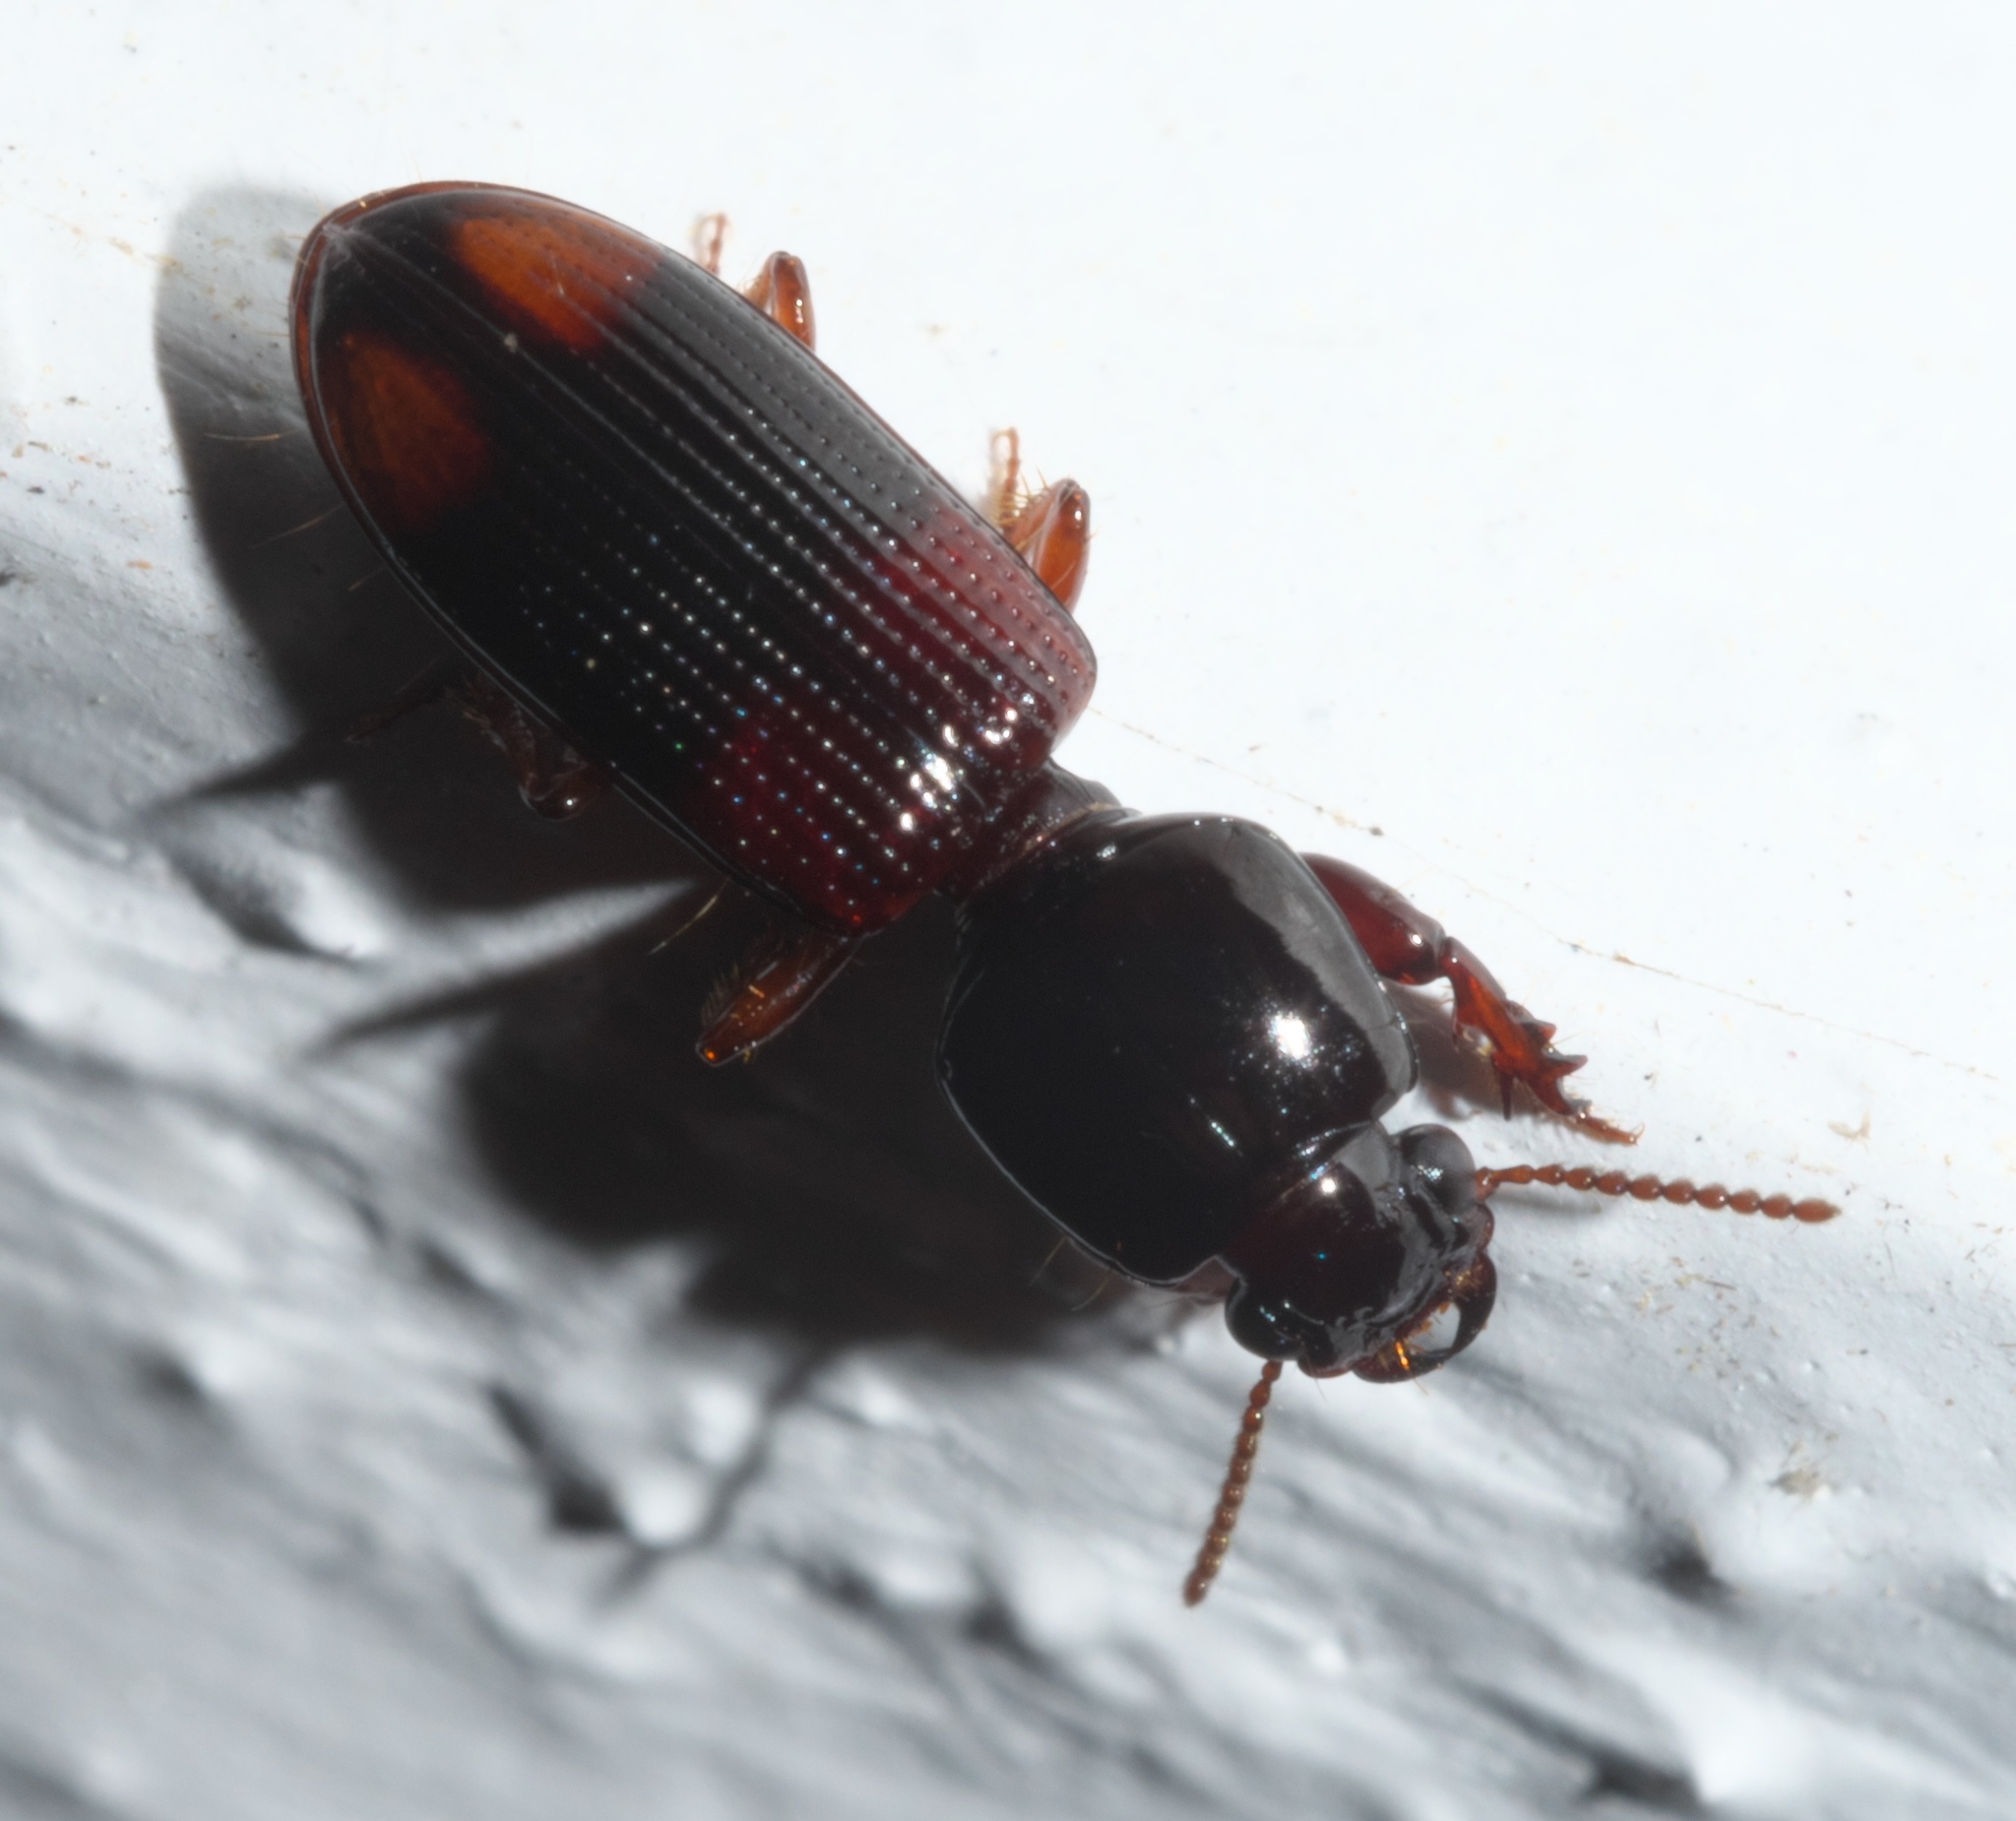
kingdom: Animalia
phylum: Arthropoda
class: Insecta
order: Coleoptera
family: Carabidae
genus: Clivina
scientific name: Clivina bipustulata
